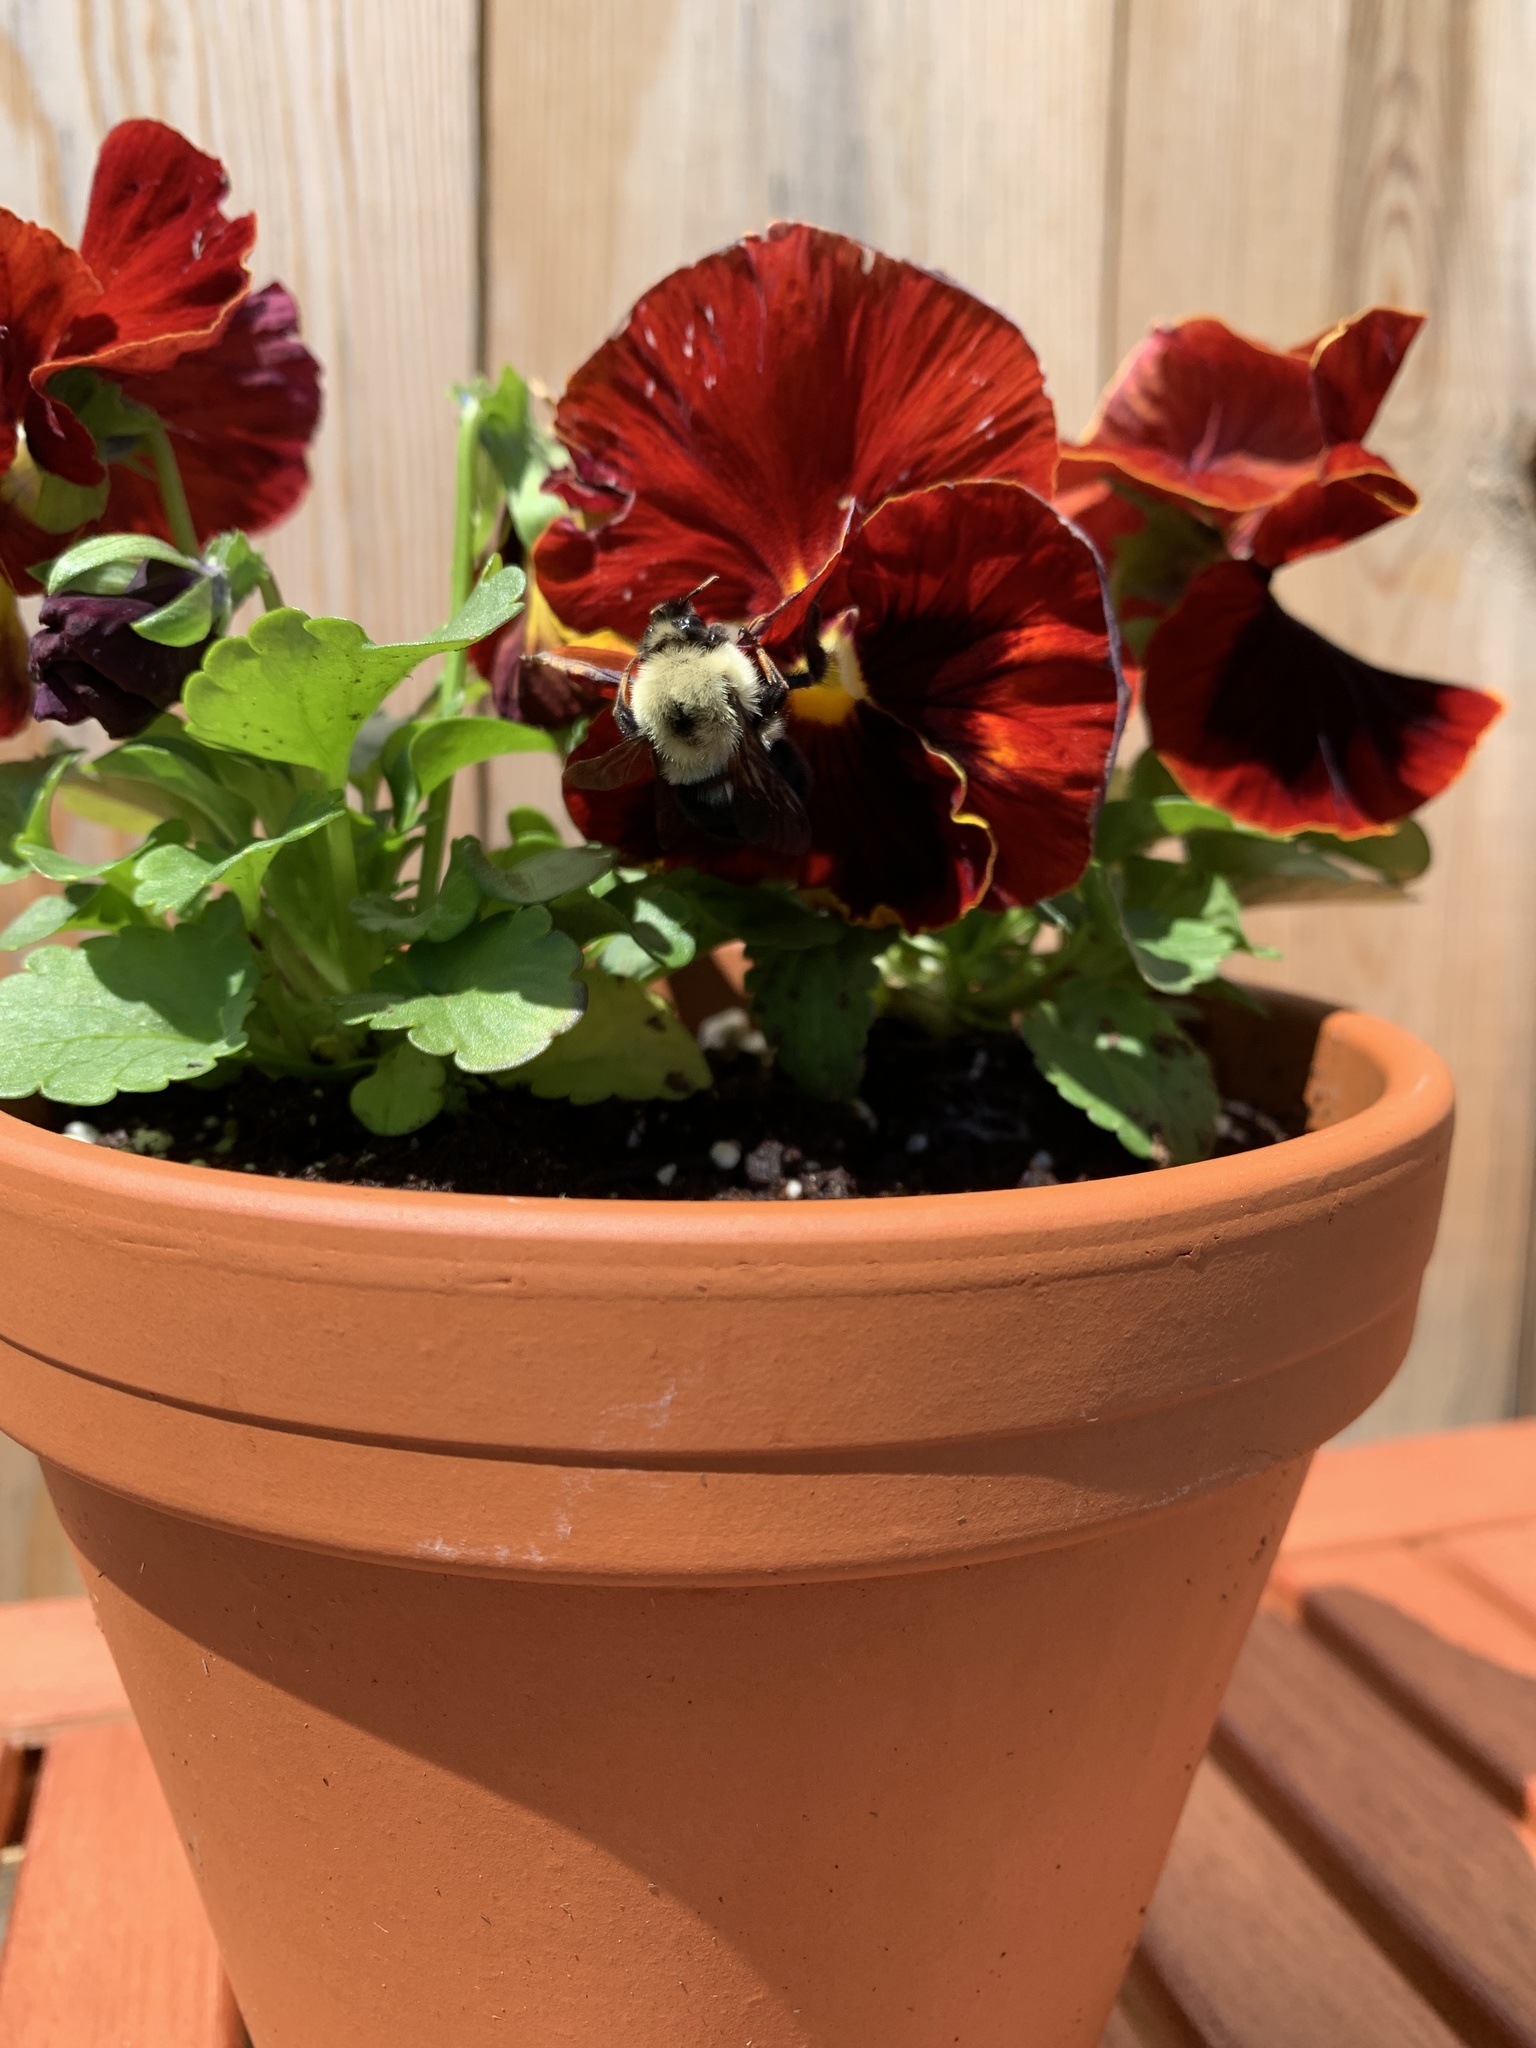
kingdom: Animalia
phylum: Arthropoda
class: Insecta
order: Hymenoptera
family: Apidae
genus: Bombus
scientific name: Bombus bimaculatus
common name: Two-spotted bumble bee
